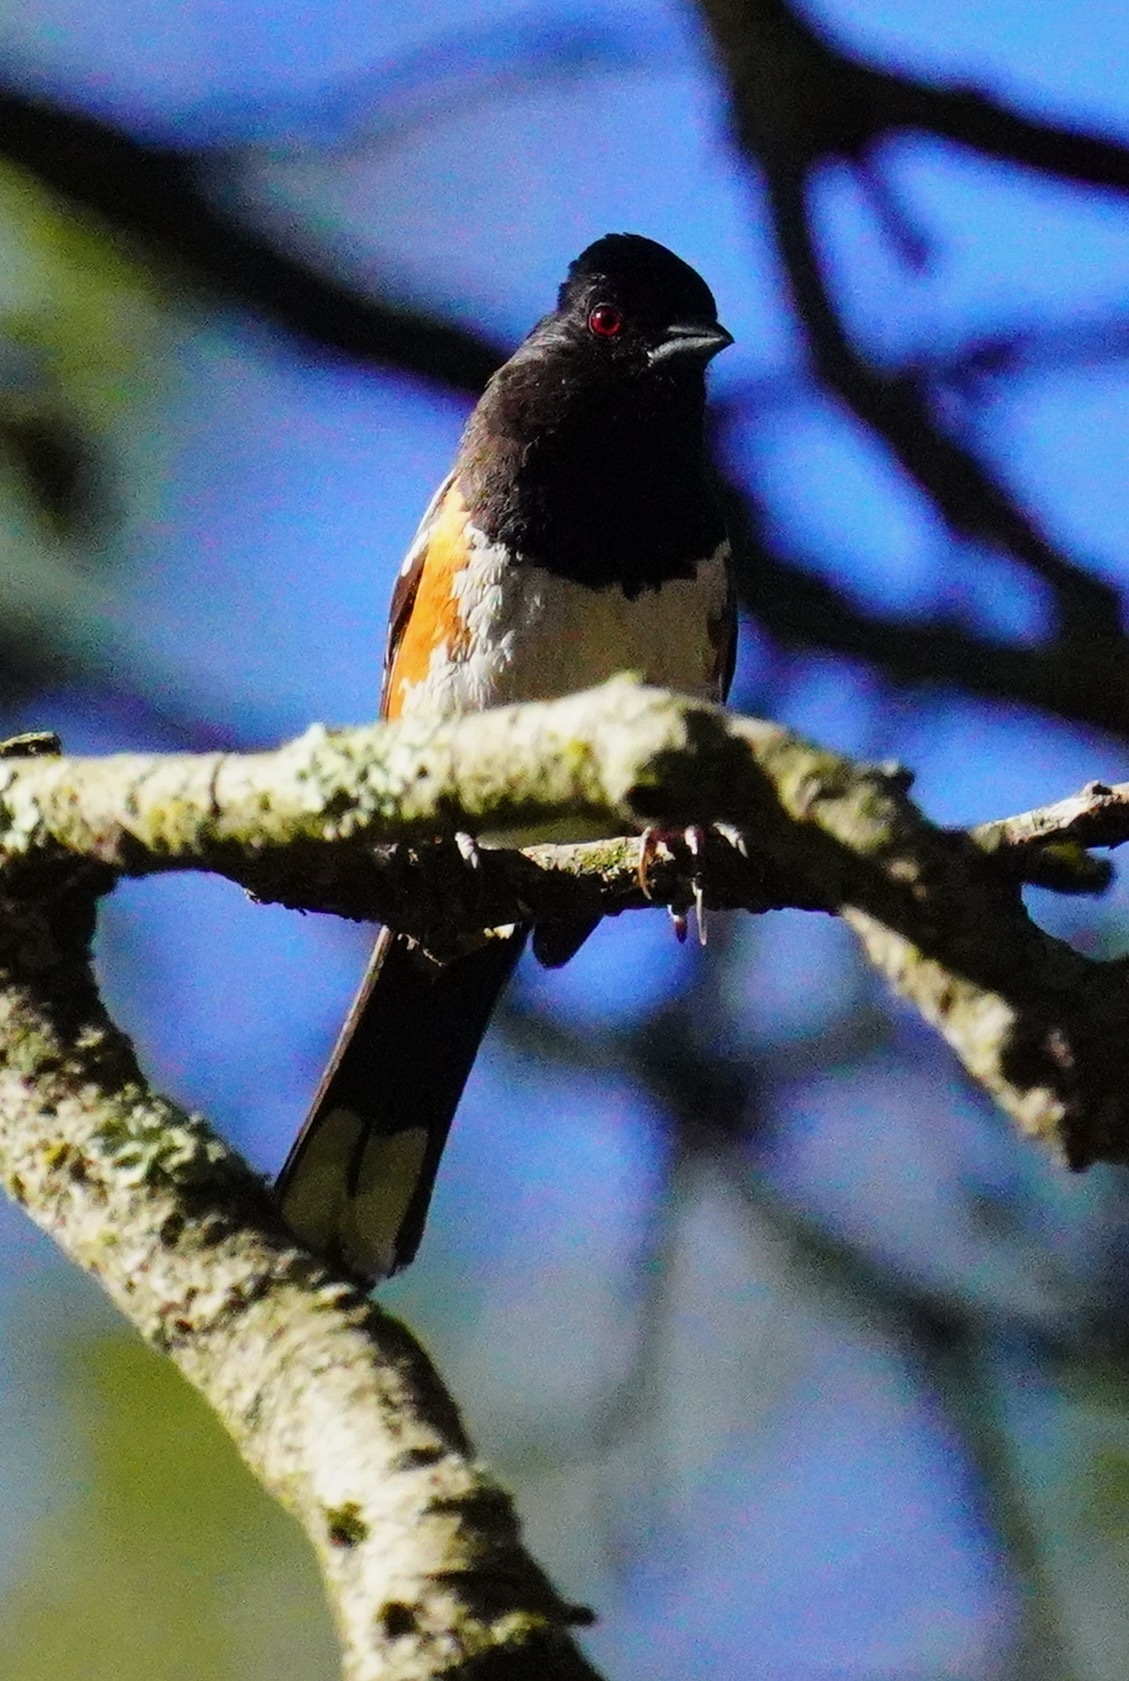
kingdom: Animalia
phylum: Chordata
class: Aves
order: Passeriformes
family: Passerellidae
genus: Pipilo
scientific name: Pipilo maculatus
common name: Spotted towhee
